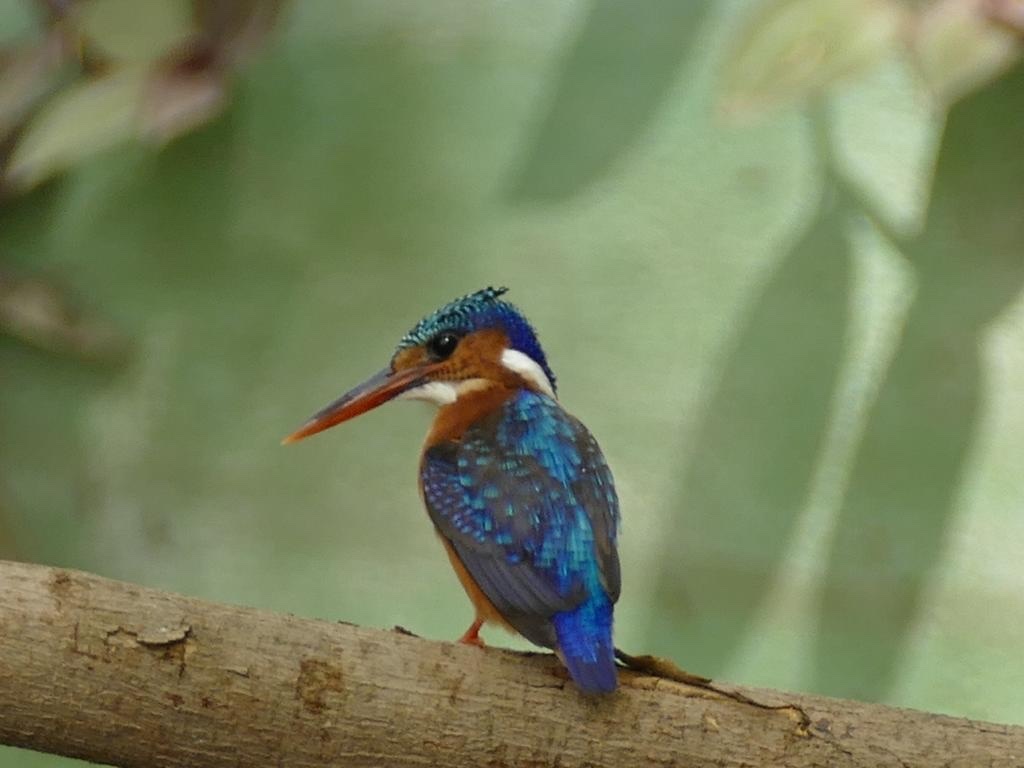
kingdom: Animalia
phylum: Chordata
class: Aves
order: Coraciiformes
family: Alcedinidae
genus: Corythornis
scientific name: Corythornis cristatus
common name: Malachite kingfisher
